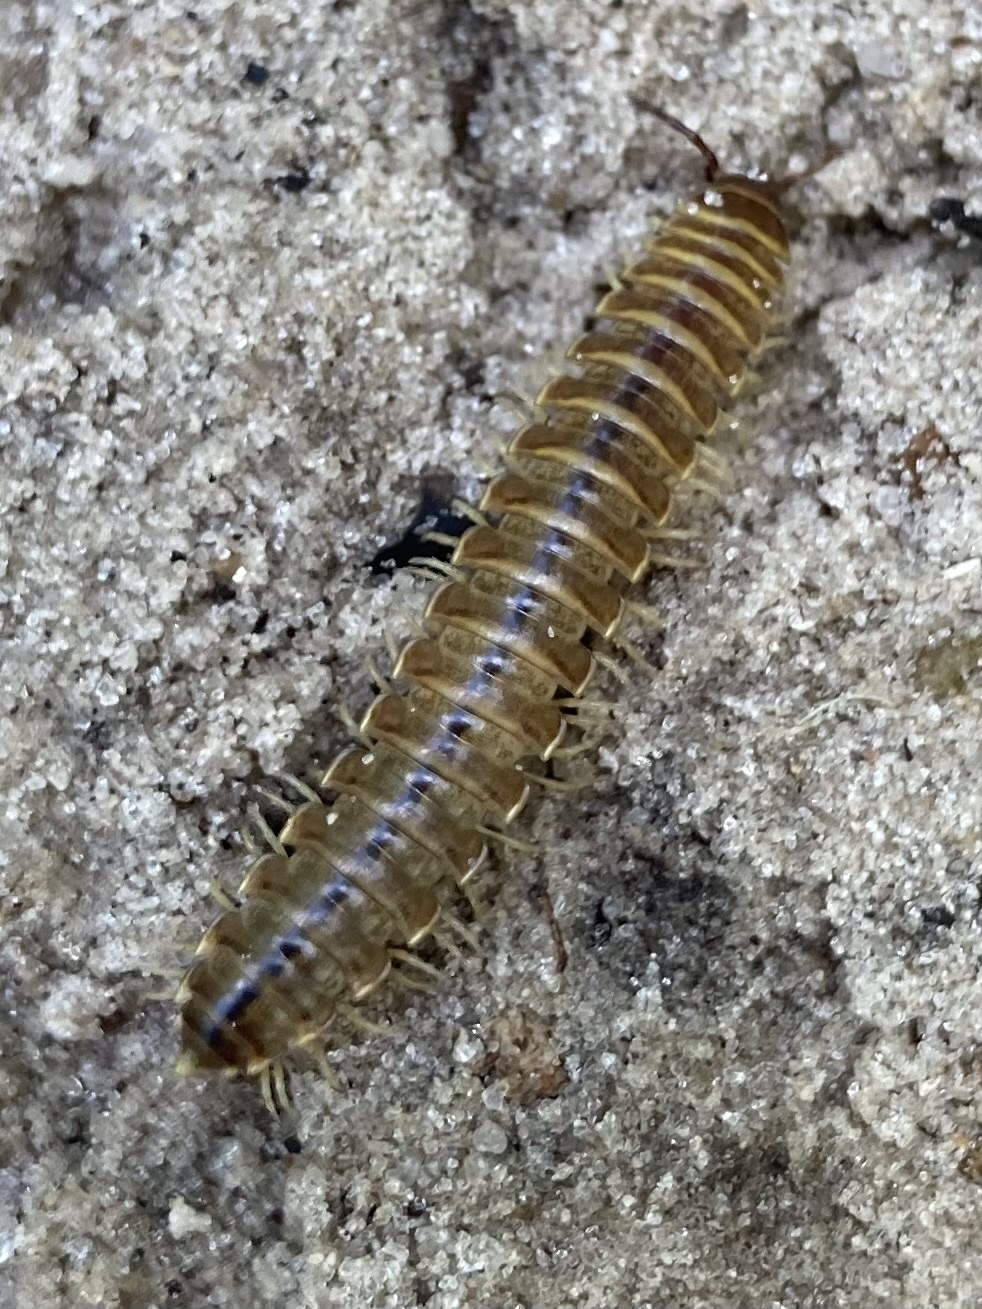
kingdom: Animalia
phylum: Arthropoda
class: Diplopoda
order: Polydesmida
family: Xystodesmidae
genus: Pleuroloma
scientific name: Pleuroloma cala
